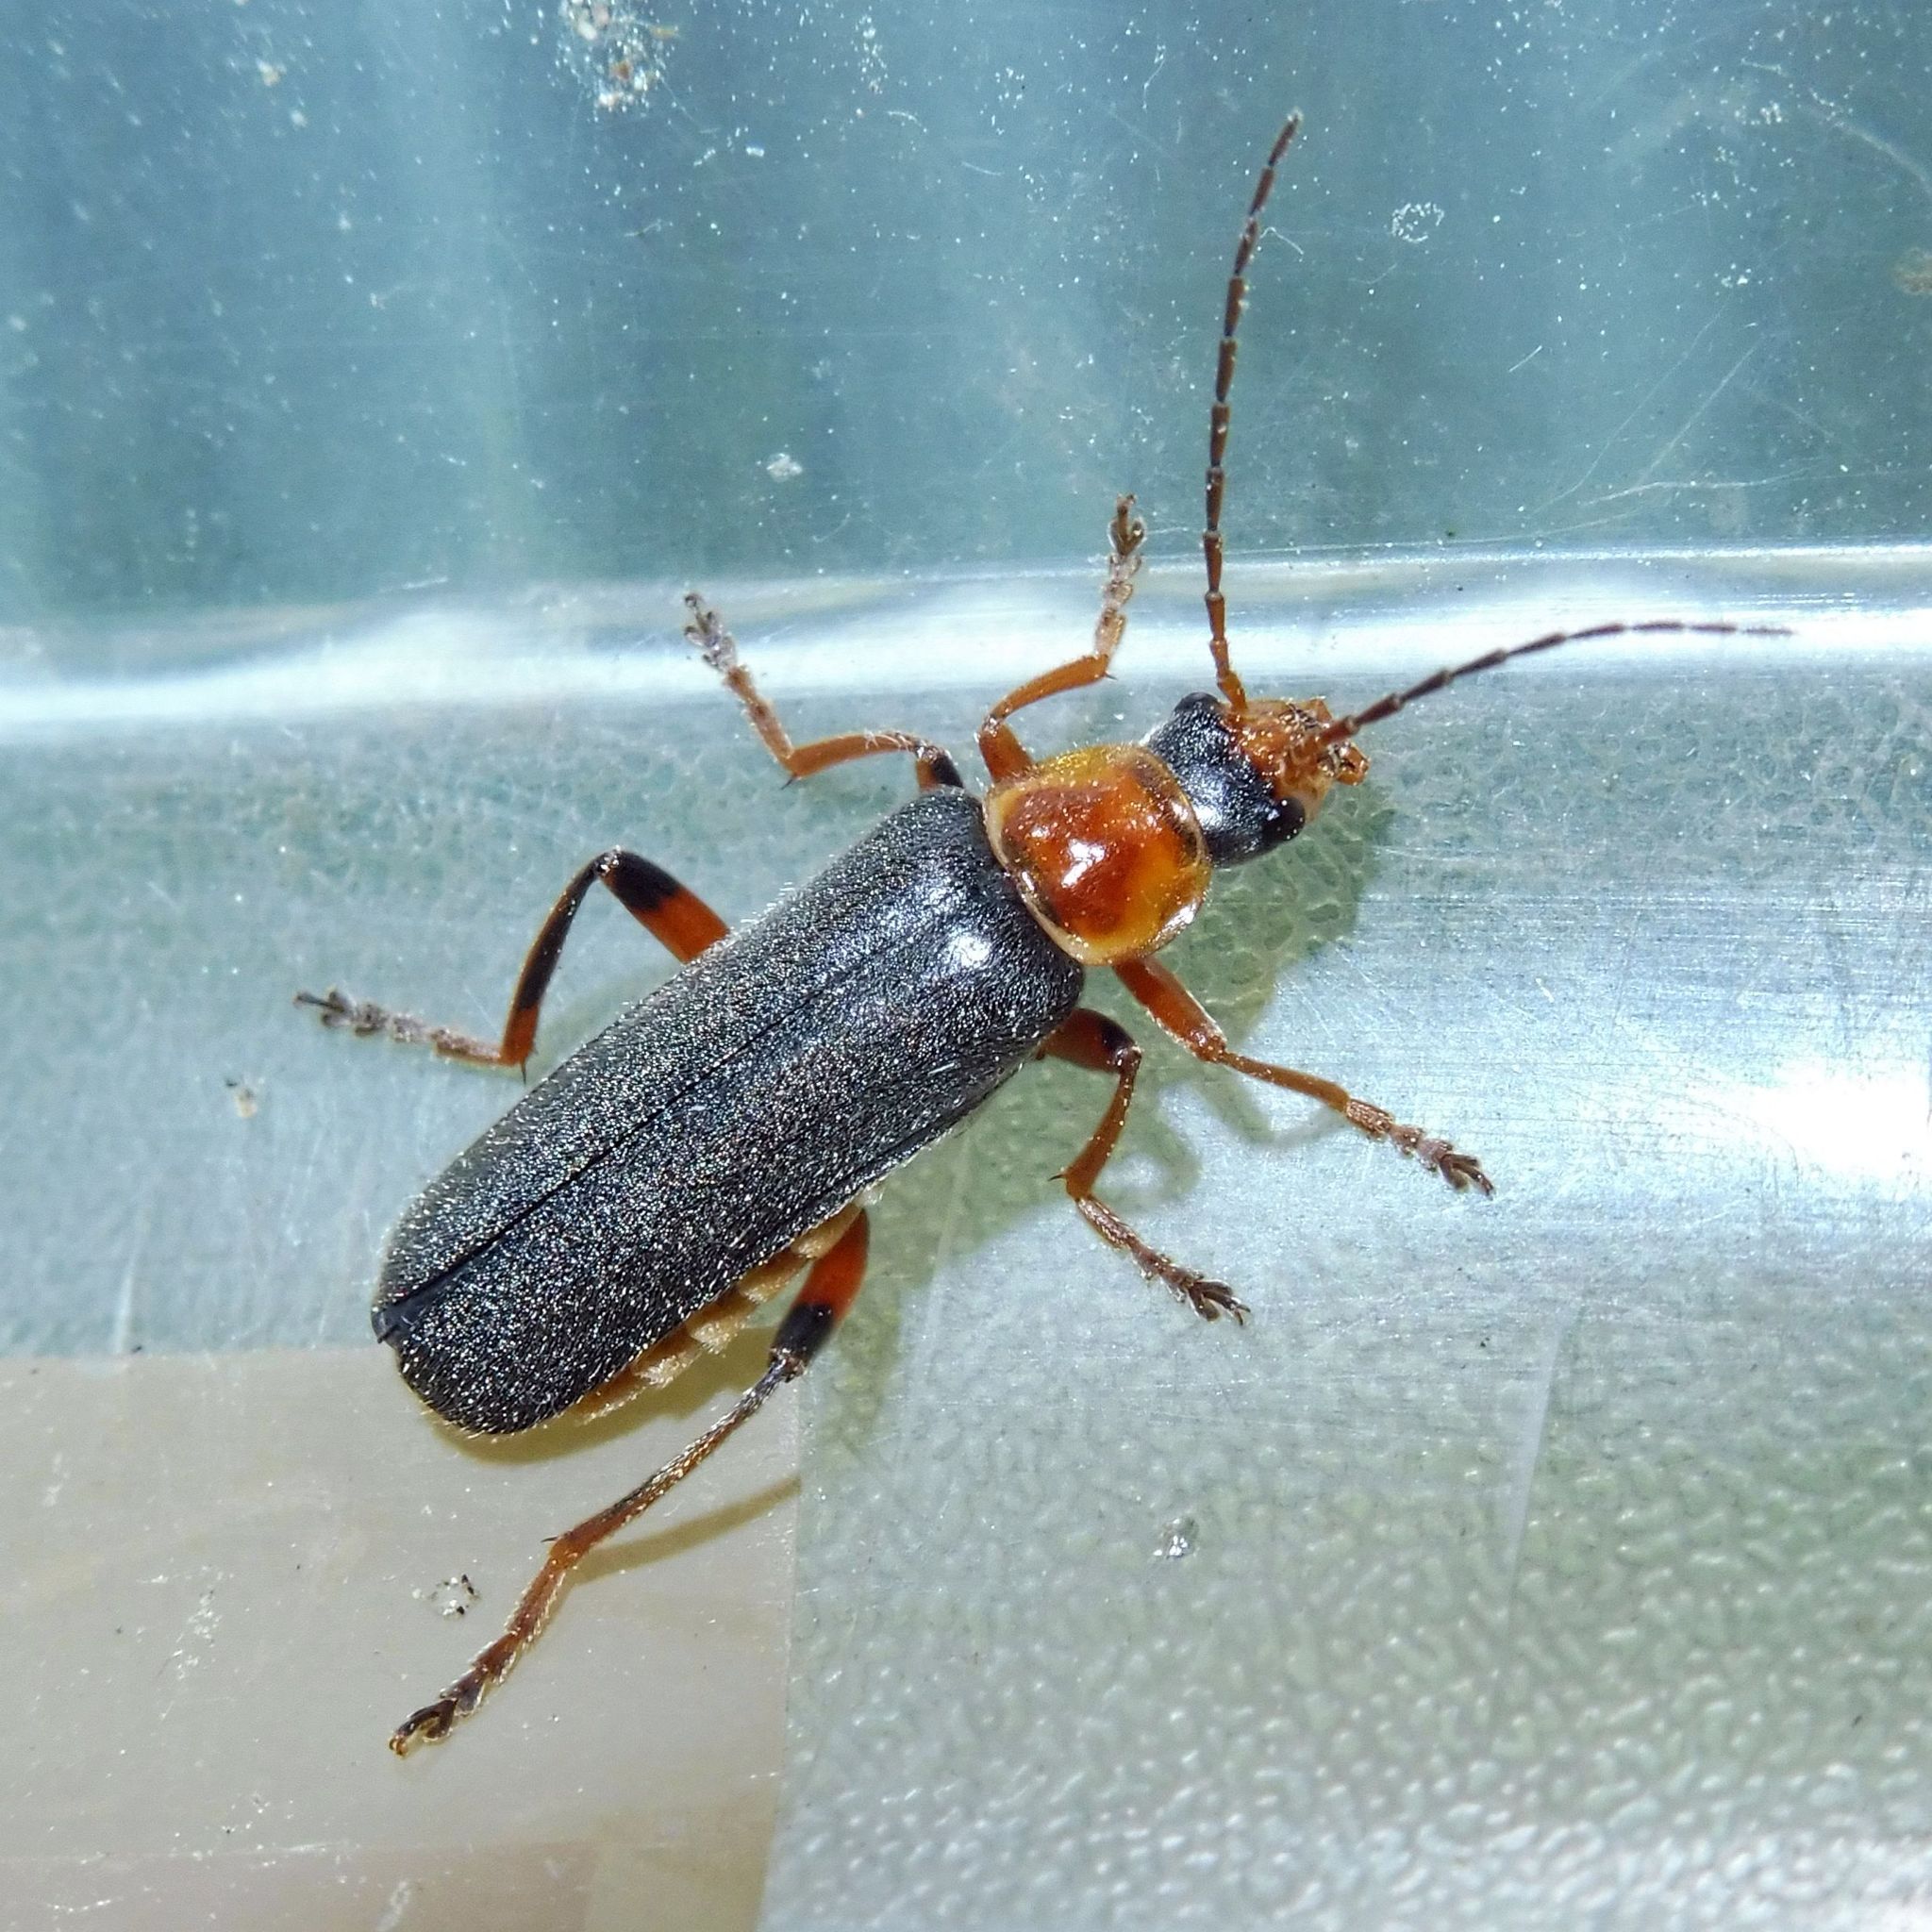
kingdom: Animalia
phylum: Arthropoda
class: Insecta
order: Coleoptera
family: Cantharidae
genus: Cantharis
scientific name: Cantharis nigricans
